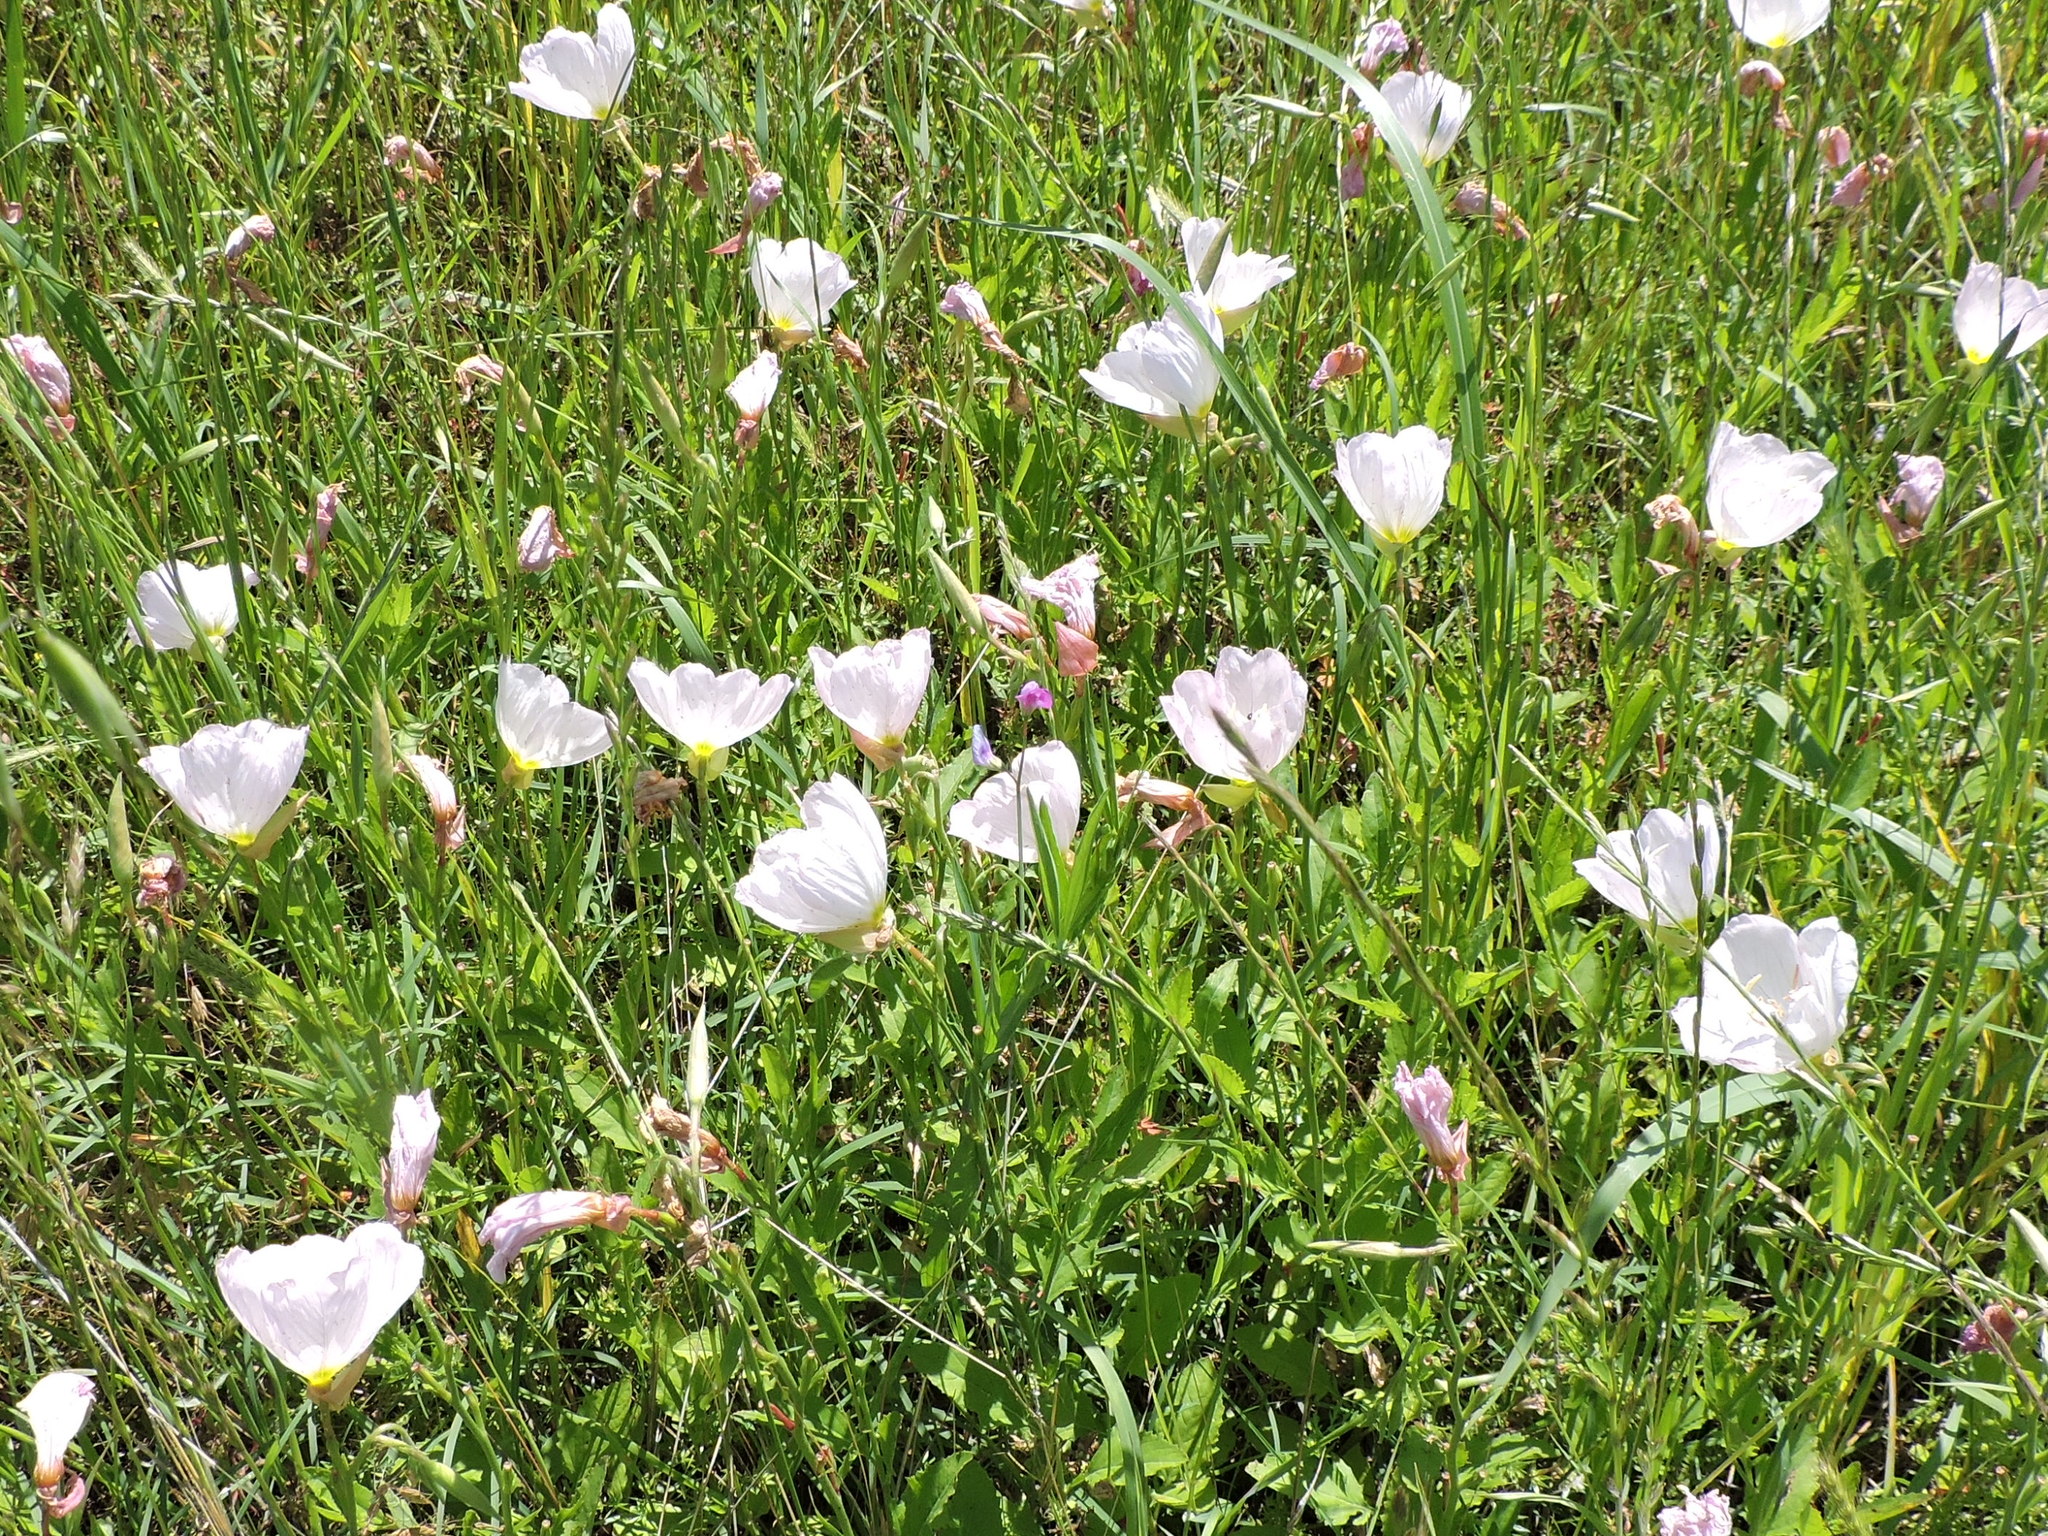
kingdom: Plantae
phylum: Tracheophyta
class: Magnoliopsida
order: Myrtales
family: Onagraceae
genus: Oenothera
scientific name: Oenothera speciosa
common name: White evening-primrose
